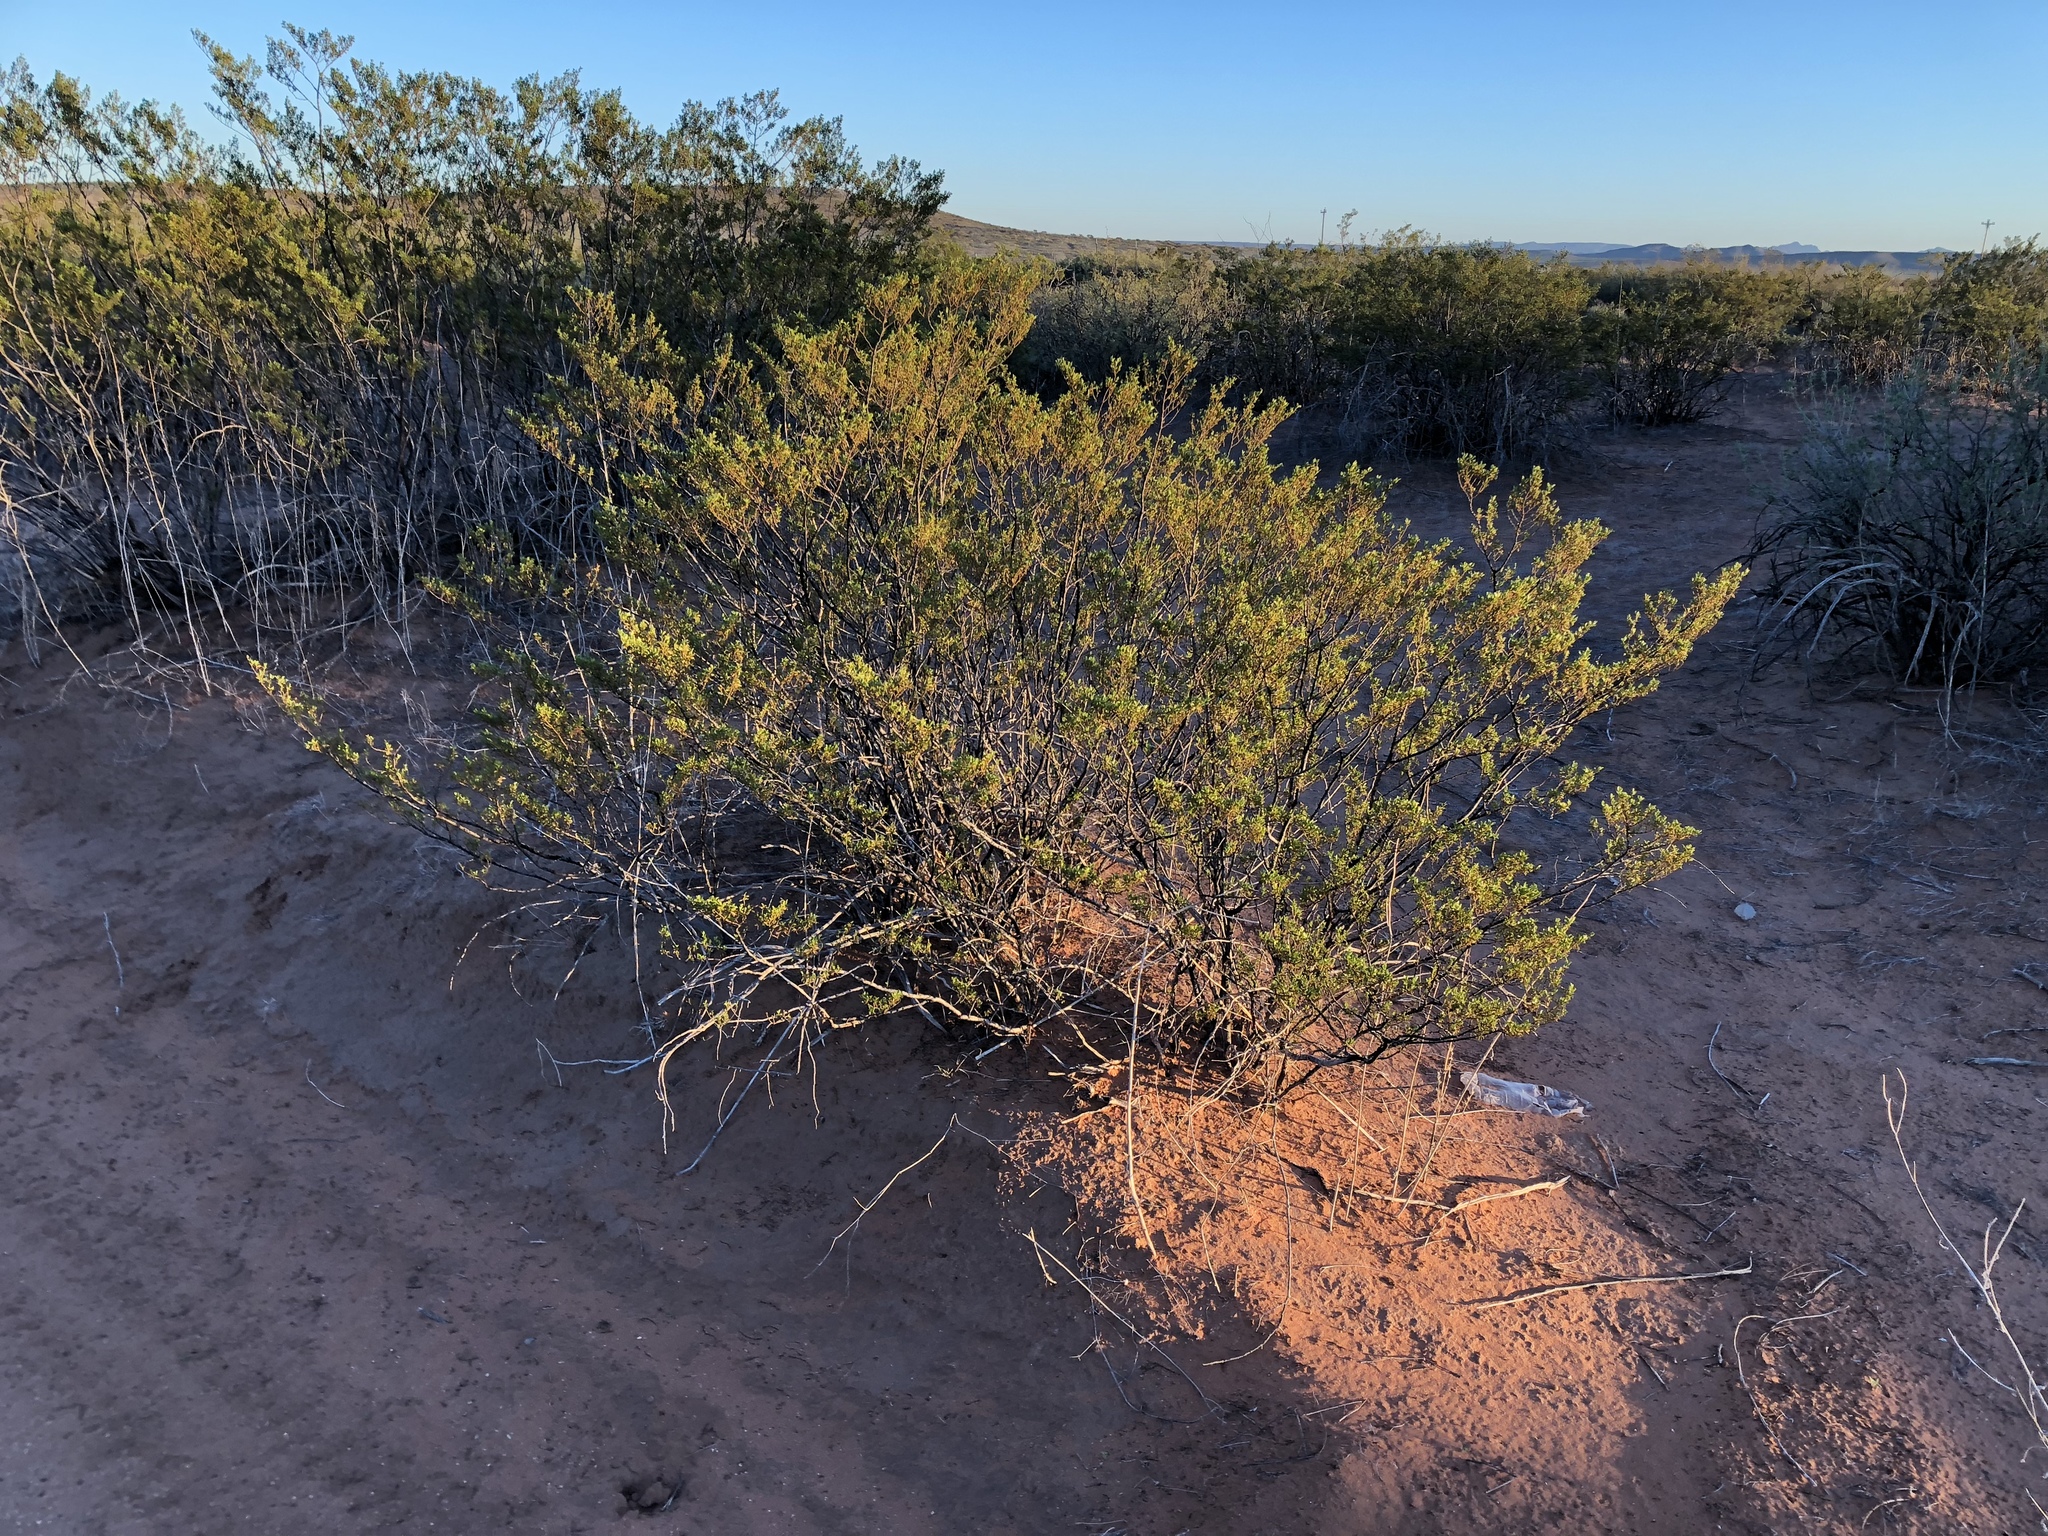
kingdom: Plantae
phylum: Tracheophyta
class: Magnoliopsida
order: Zygophyllales
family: Zygophyllaceae
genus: Larrea
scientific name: Larrea tridentata
